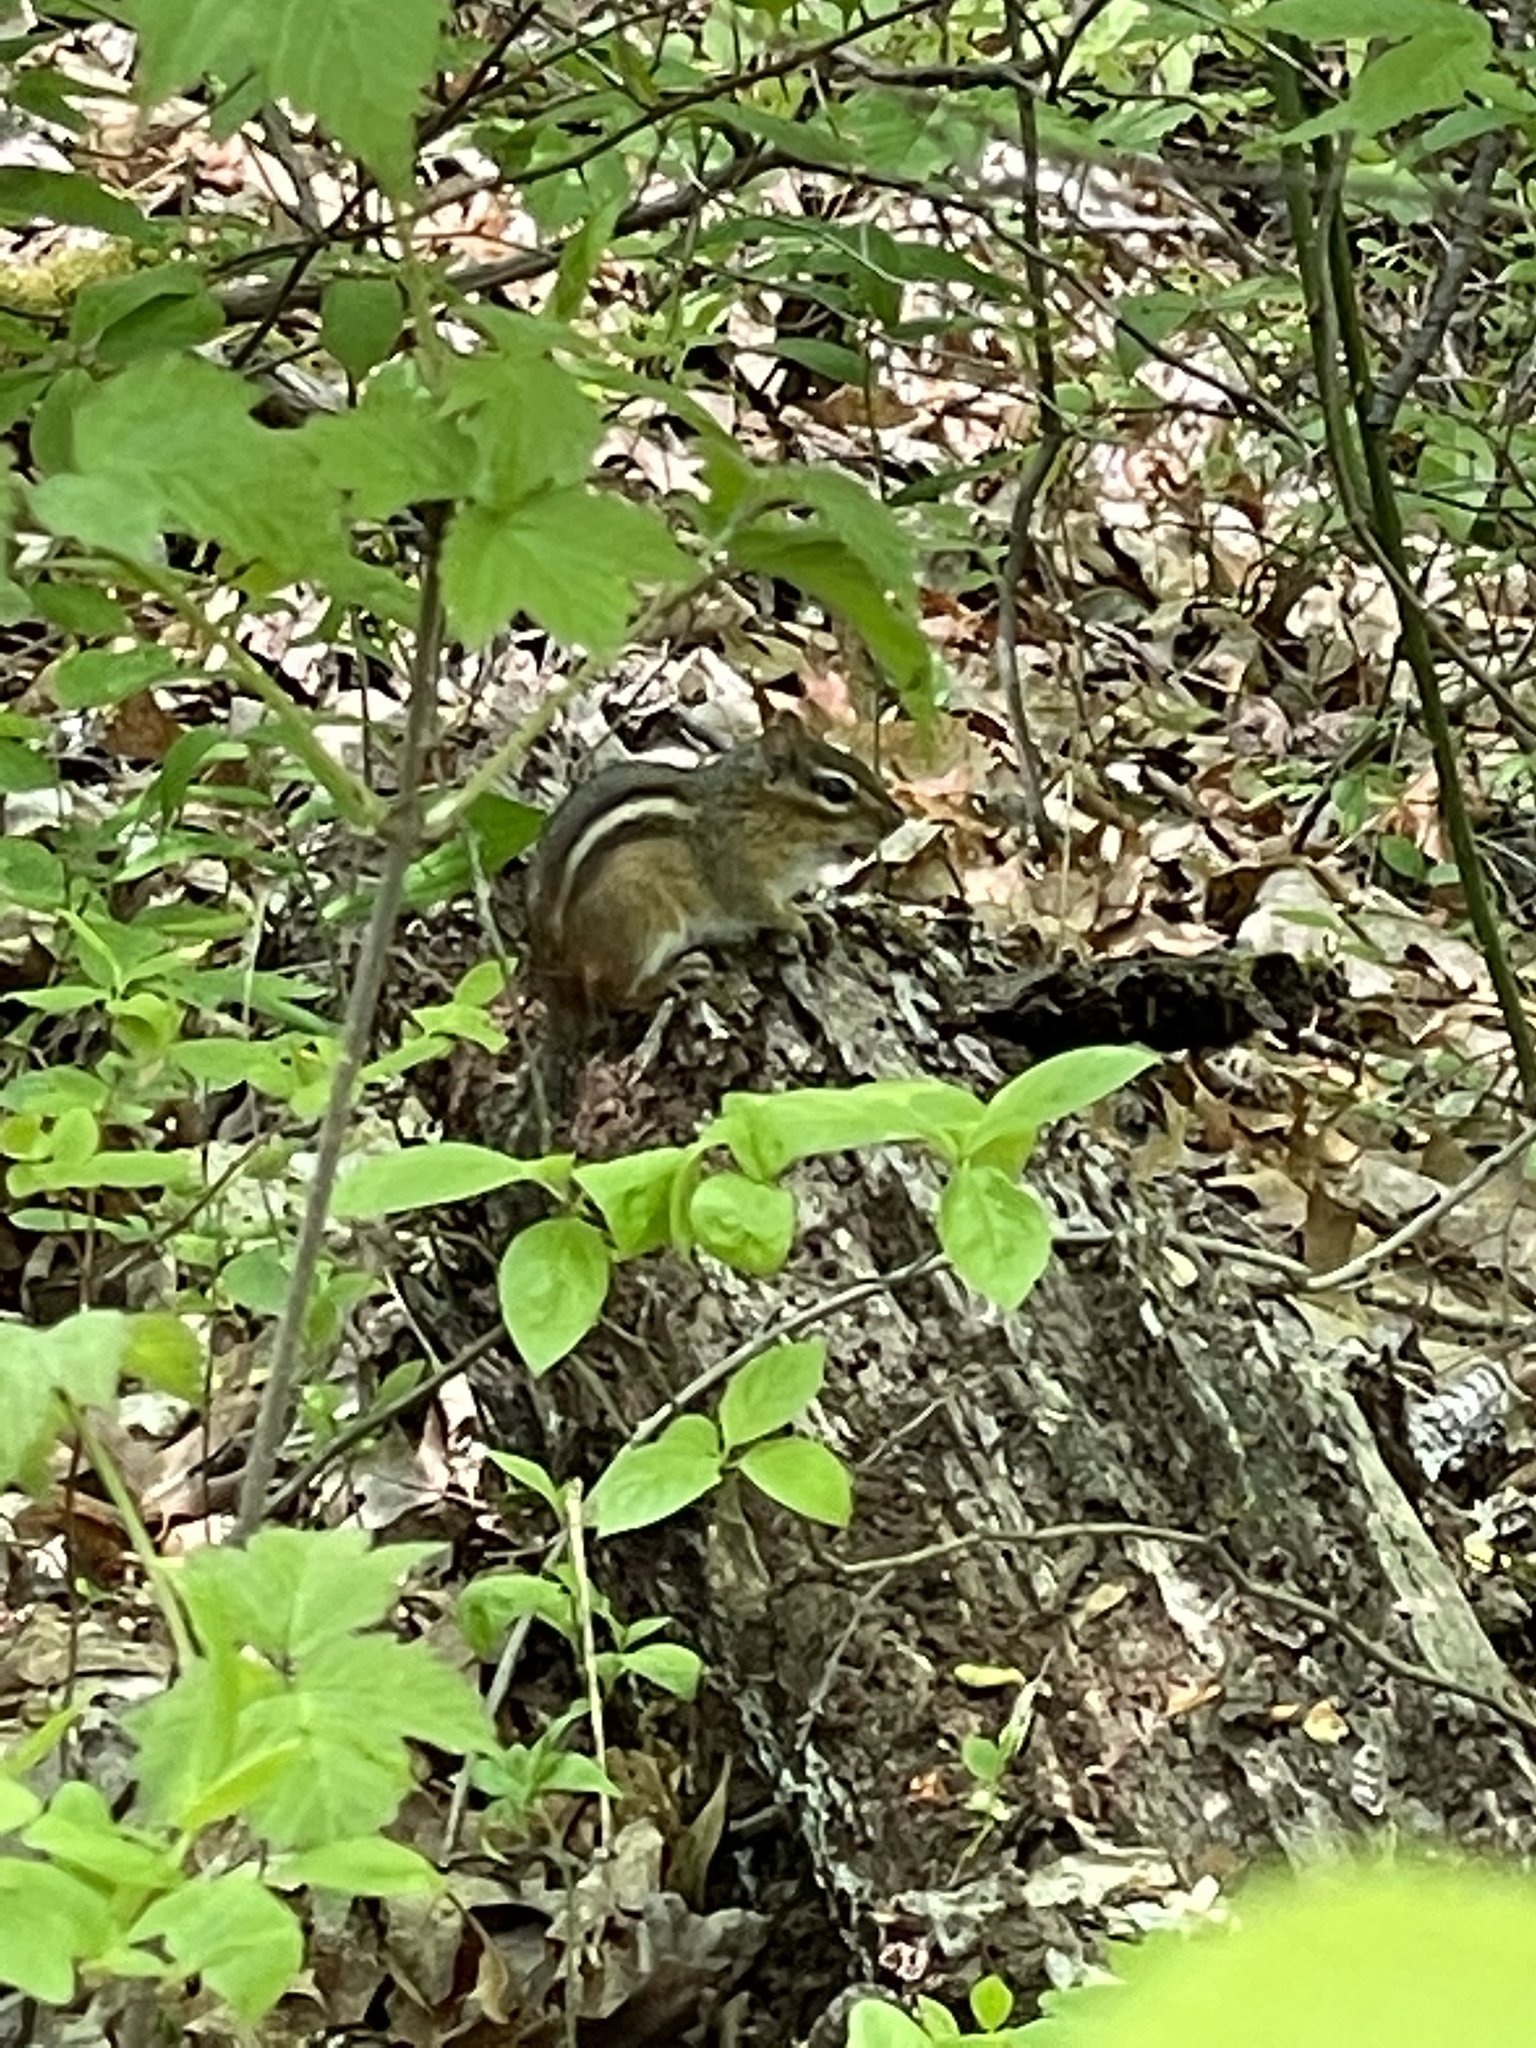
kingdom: Animalia
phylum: Chordata
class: Mammalia
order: Rodentia
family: Sciuridae
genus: Tamias
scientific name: Tamias striatus
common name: Eastern chipmunk
